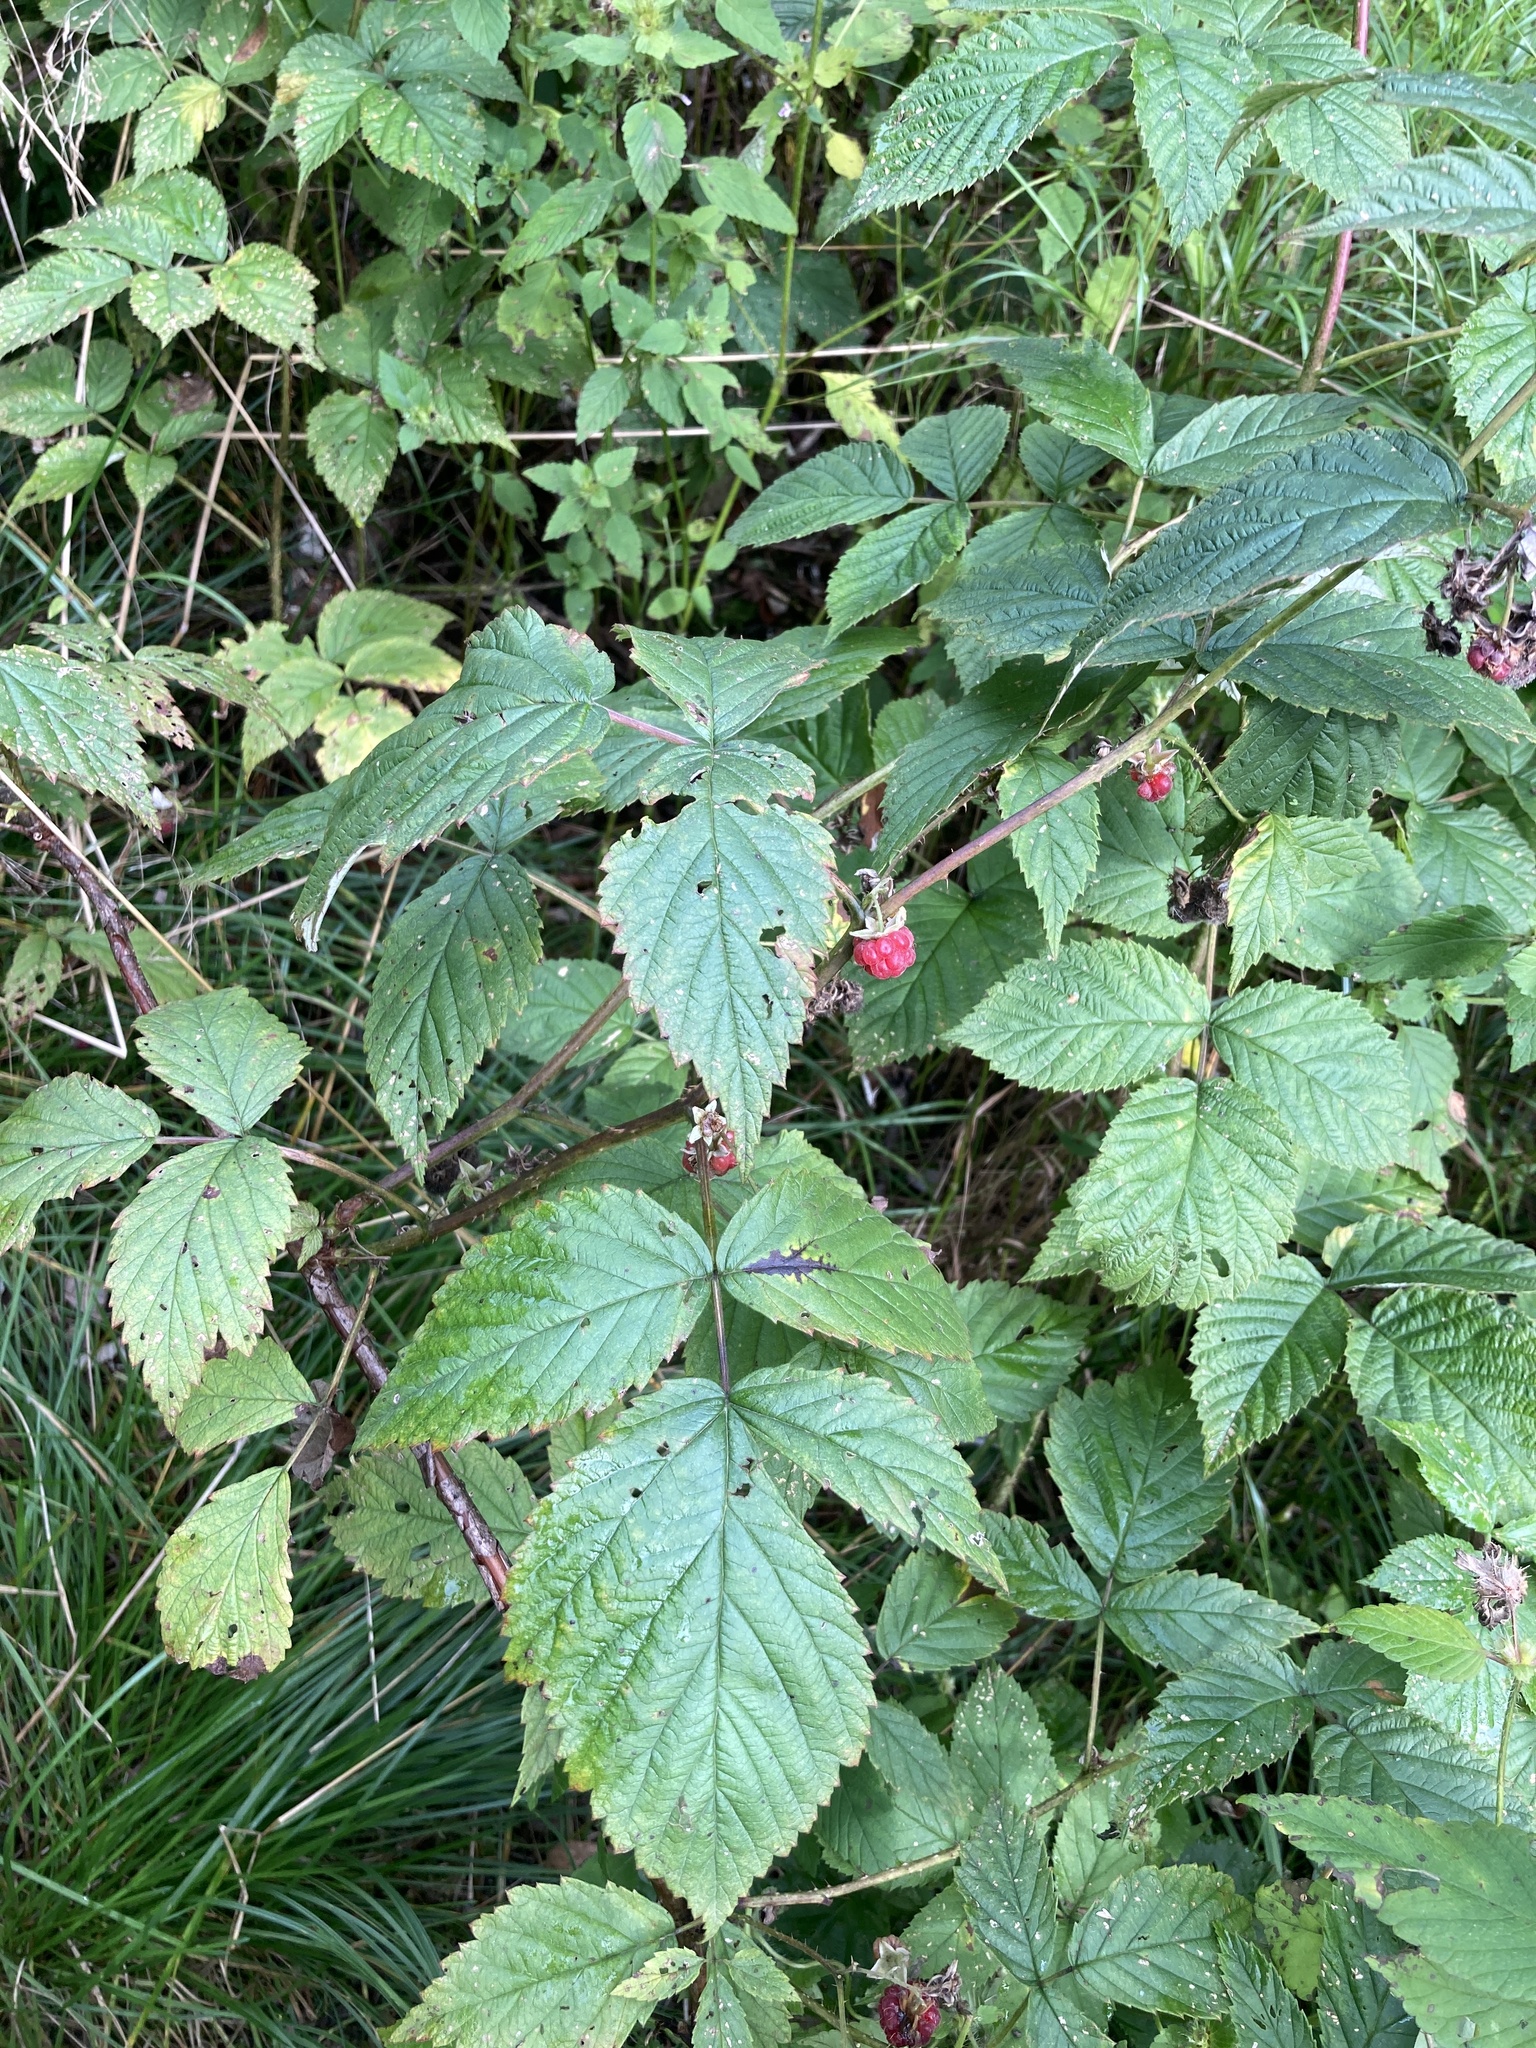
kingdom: Plantae
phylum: Tracheophyta
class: Magnoliopsida
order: Rosales
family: Rosaceae
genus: Rubus
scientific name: Rubus idaeus
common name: Raspberry
